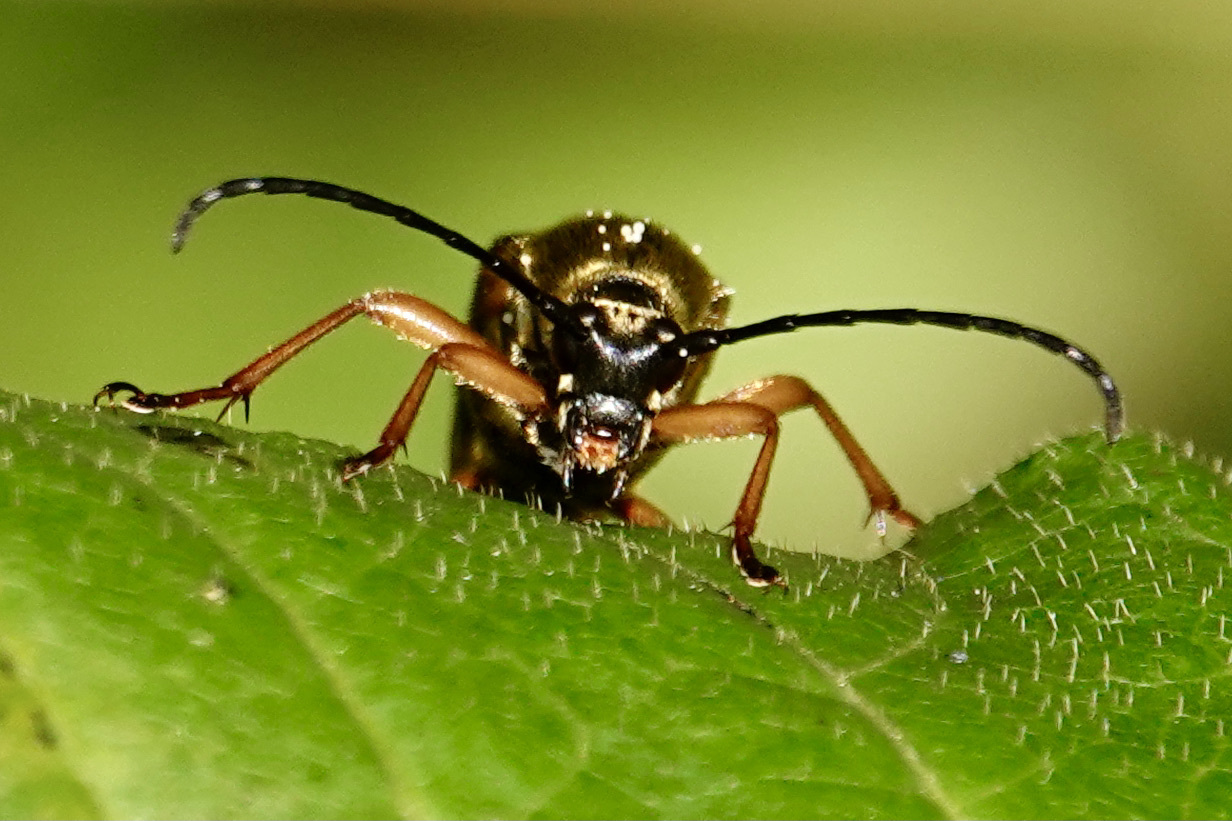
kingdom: Animalia
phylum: Arthropoda
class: Insecta
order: Coleoptera
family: Cerambycidae
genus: Typocerus
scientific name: Typocerus velutinus
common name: Banded longhorn beetle
